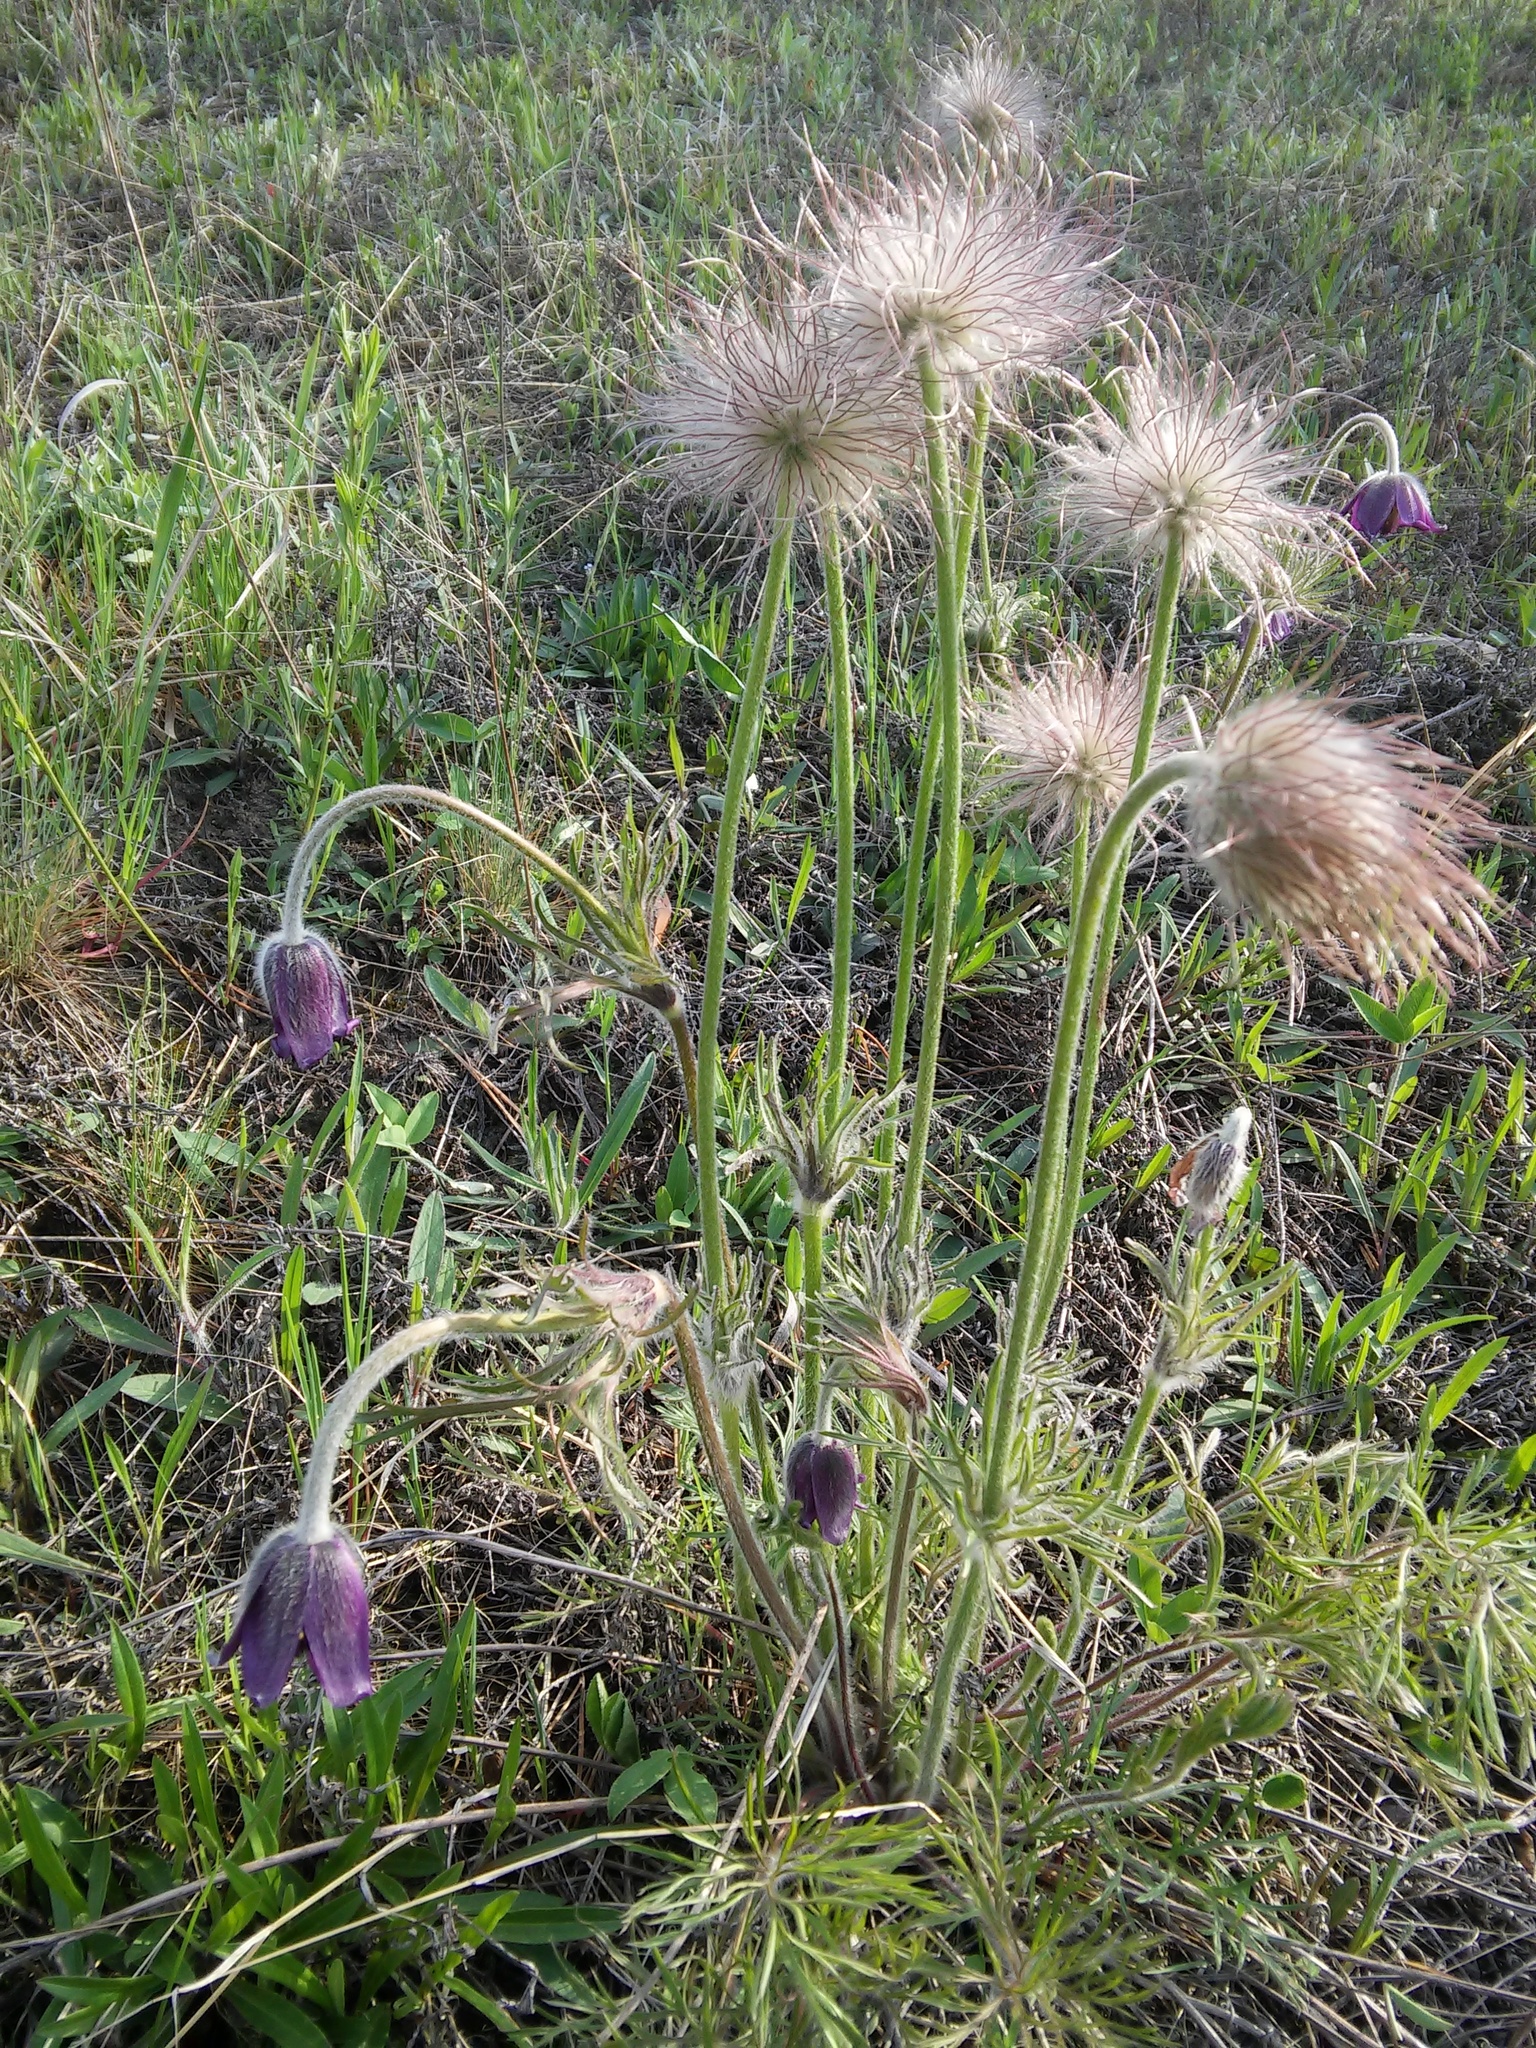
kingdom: Plantae
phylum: Tracheophyta
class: Magnoliopsida
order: Ranunculales
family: Ranunculaceae
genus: Pulsatilla
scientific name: Pulsatilla pratensis
